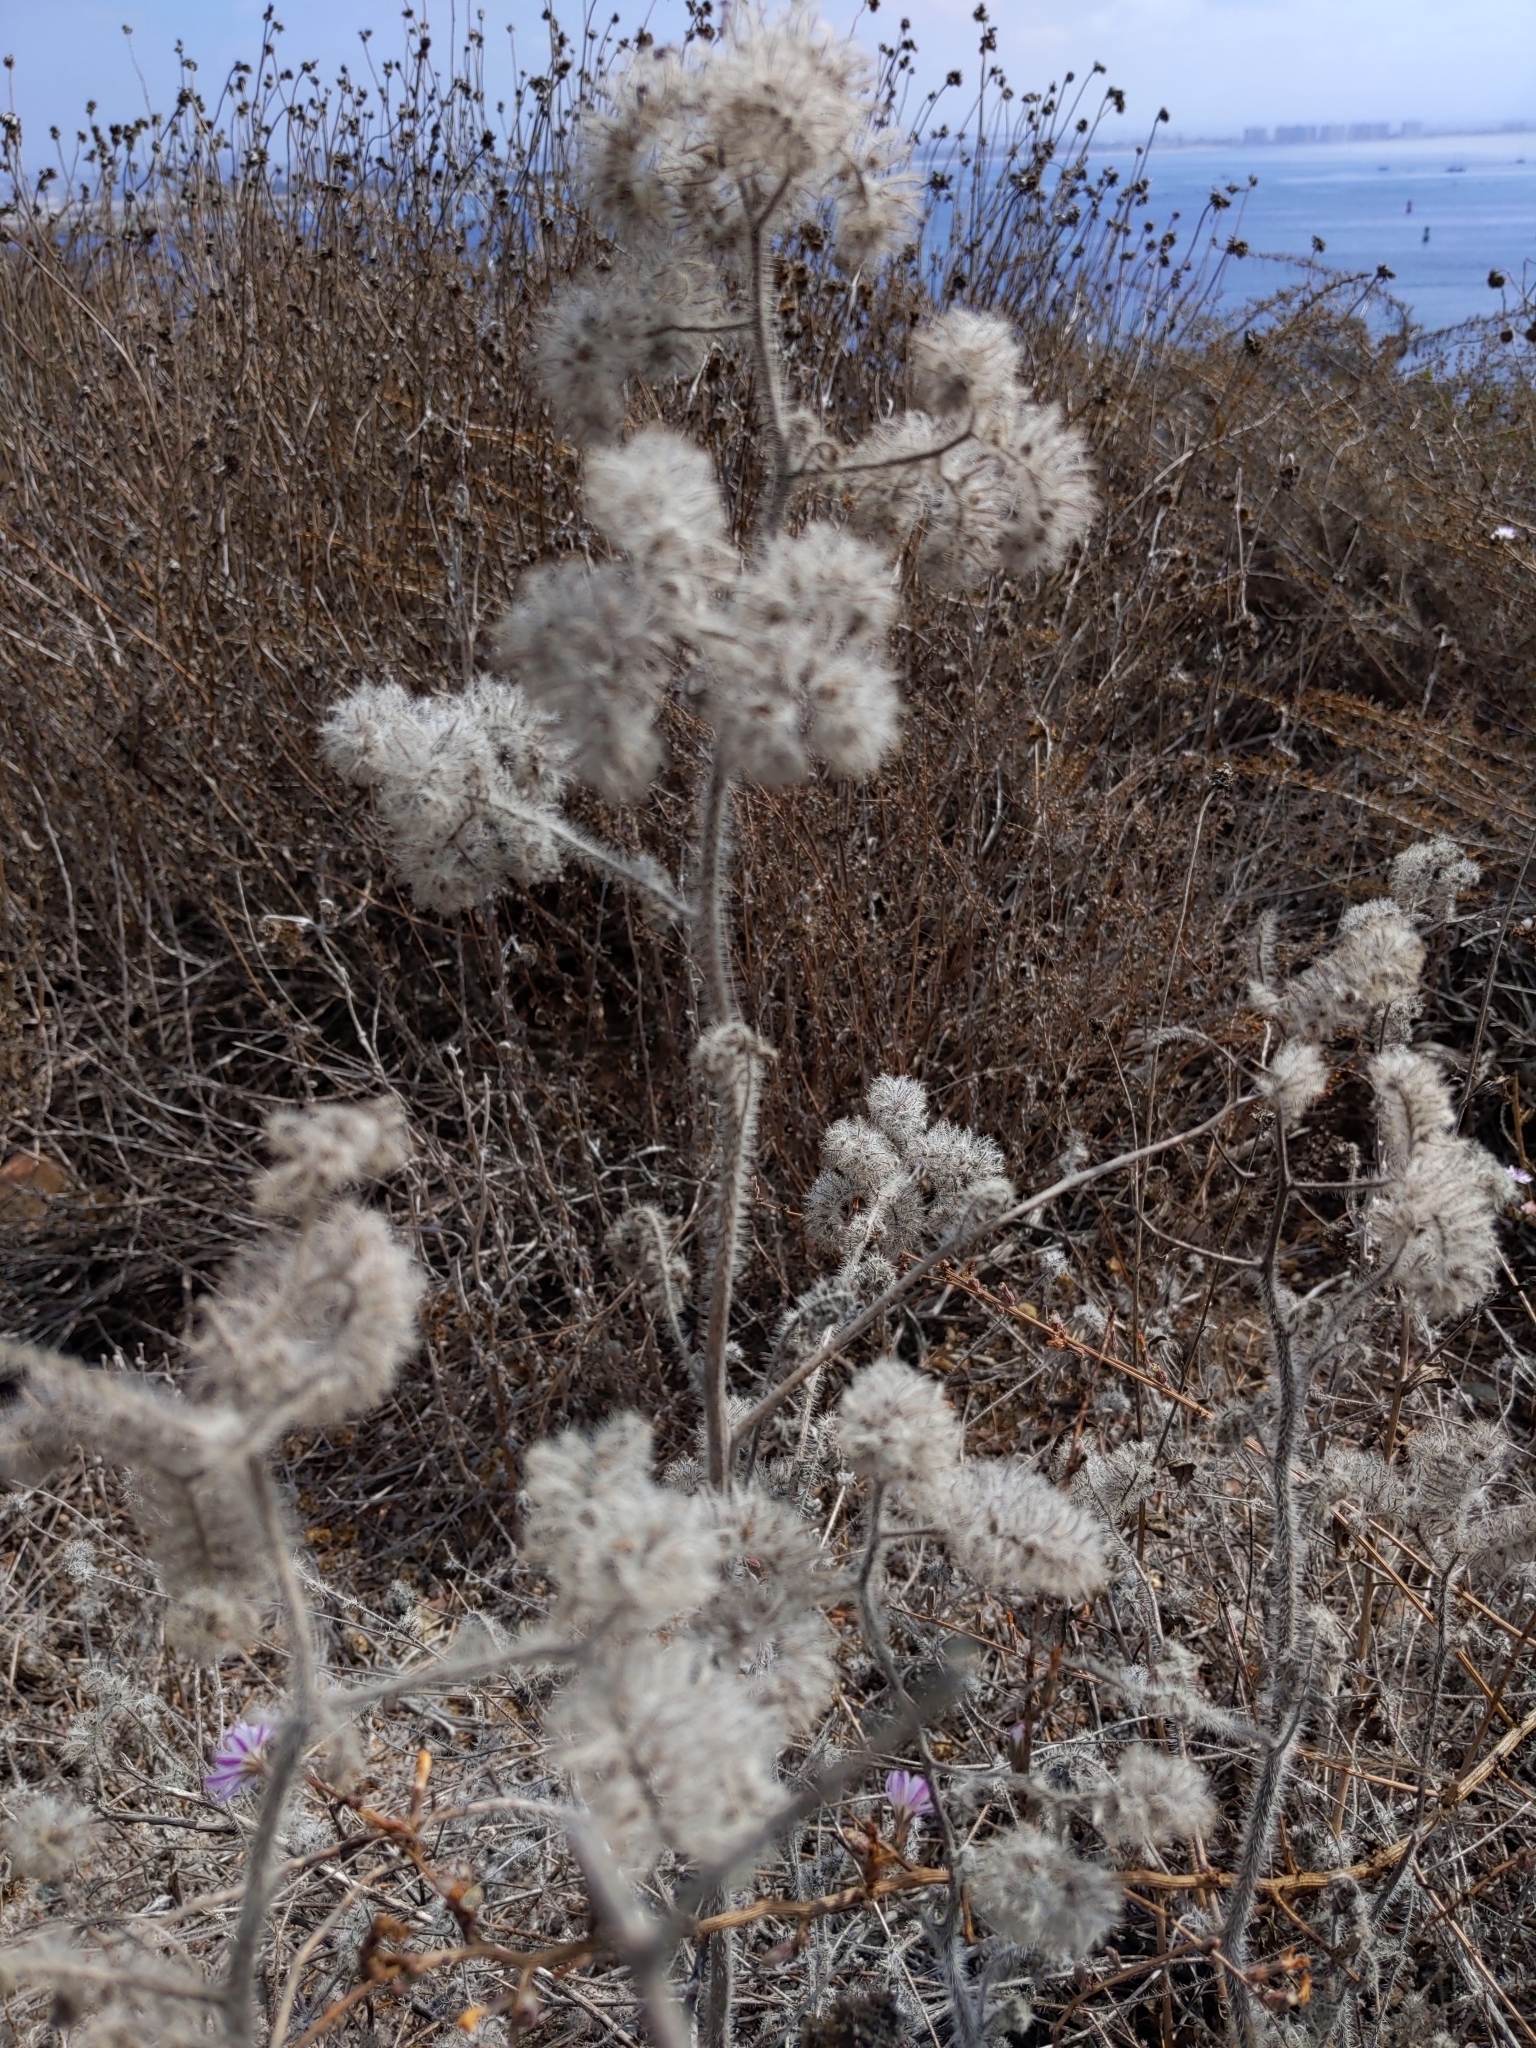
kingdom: Plantae
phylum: Tracheophyta
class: Magnoliopsida
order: Boraginales
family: Hydrophyllaceae
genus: Phacelia
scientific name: Phacelia cicutaria
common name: Caterpillar phacelia
